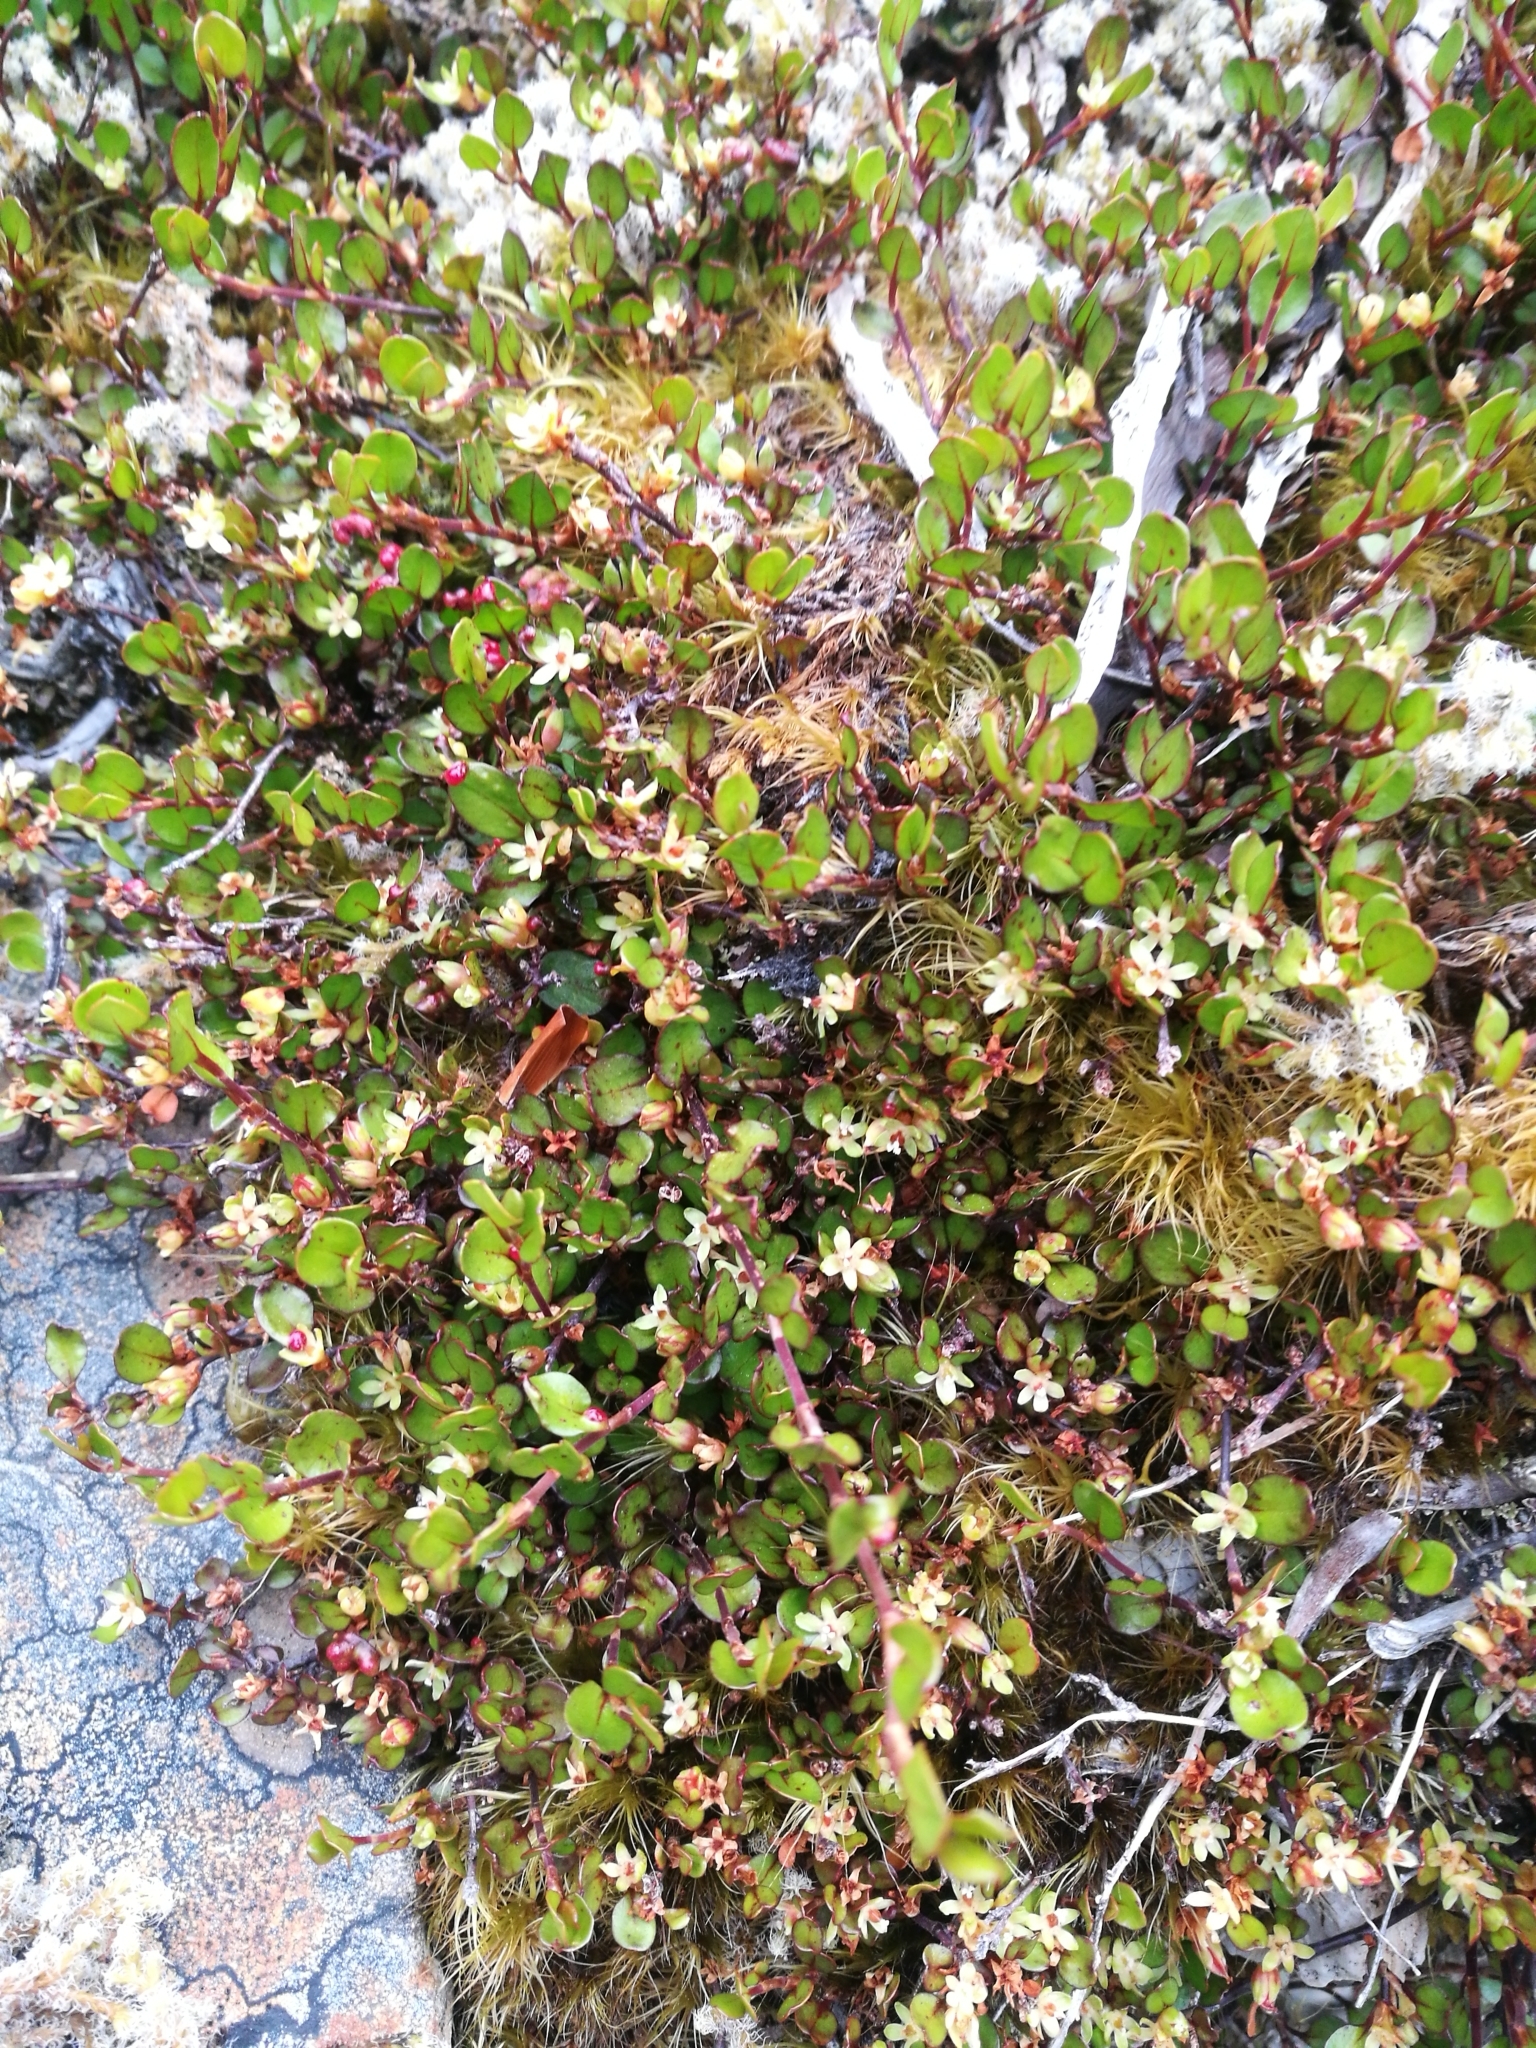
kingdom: Plantae
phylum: Tracheophyta
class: Magnoliopsida
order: Caryophyllales
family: Polygonaceae
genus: Muehlenbeckia
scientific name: Muehlenbeckia axillaris
